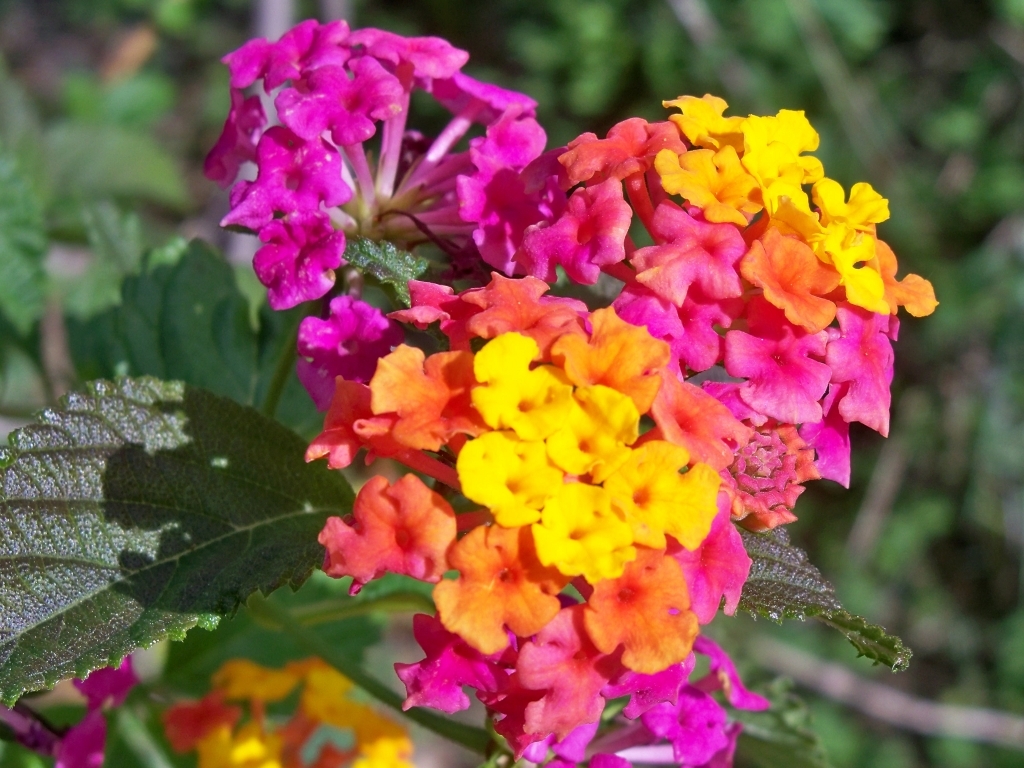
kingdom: Plantae
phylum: Tracheophyta
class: Magnoliopsida
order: Lamiales
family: Verbenaceae
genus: Lantana
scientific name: Lantana camara
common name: Lantana
